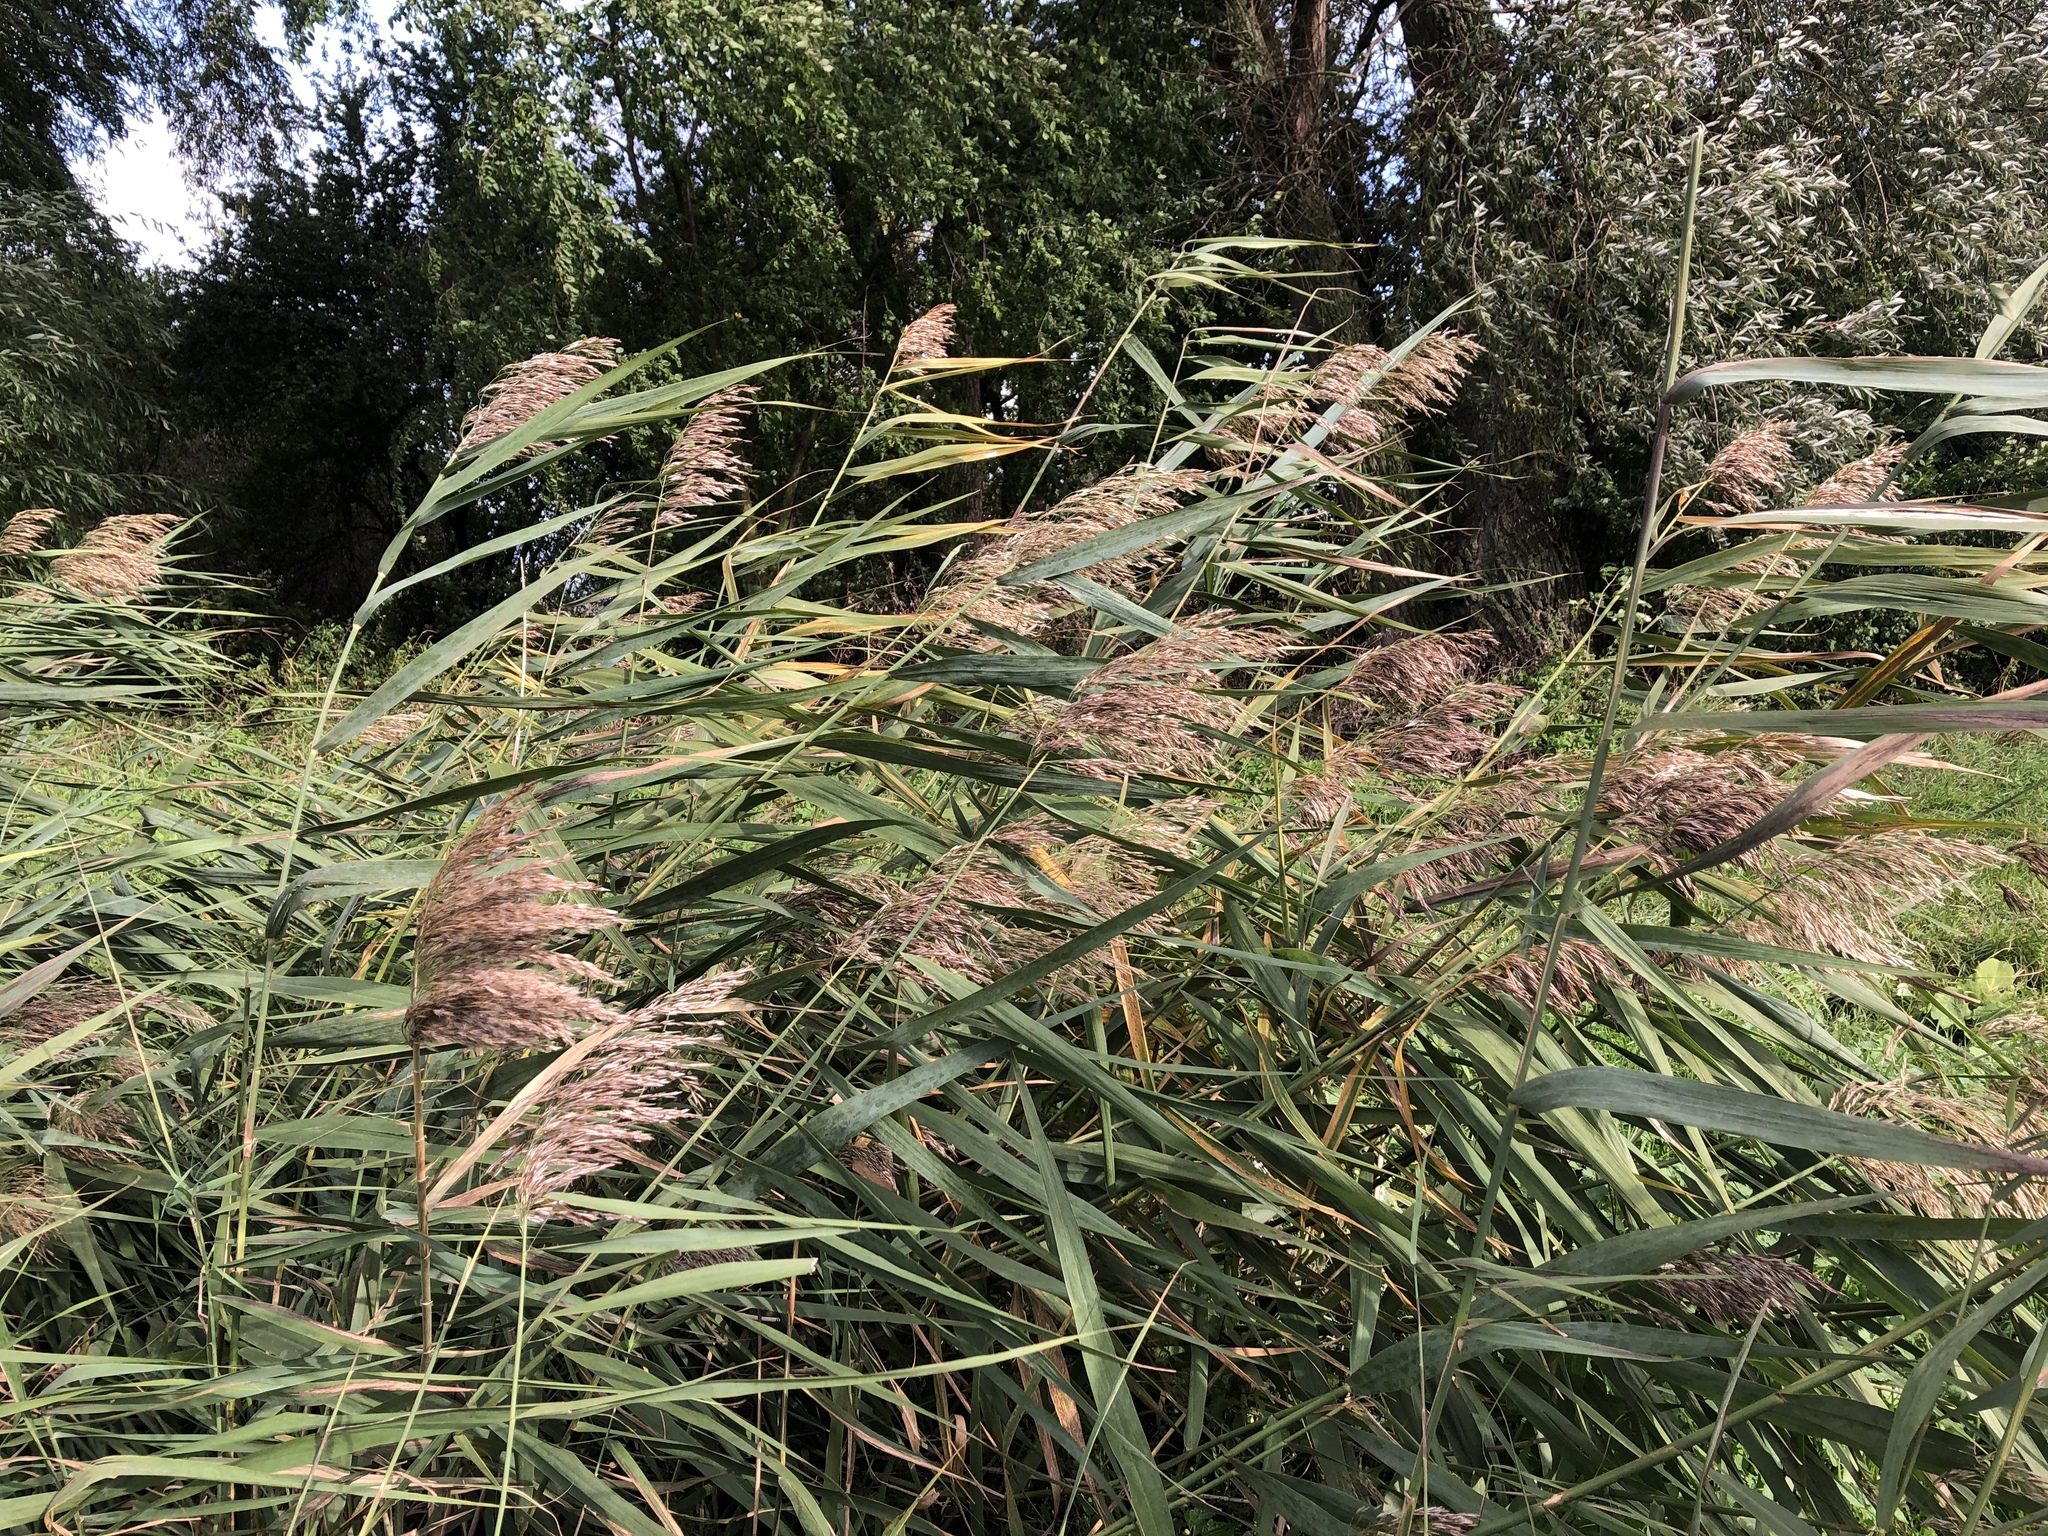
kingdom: Plantae
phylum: Tracheophyta
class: Liliopsida
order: Poales
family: Poaceae
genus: Phragmites
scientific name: Phragmites australis
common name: Common reed
